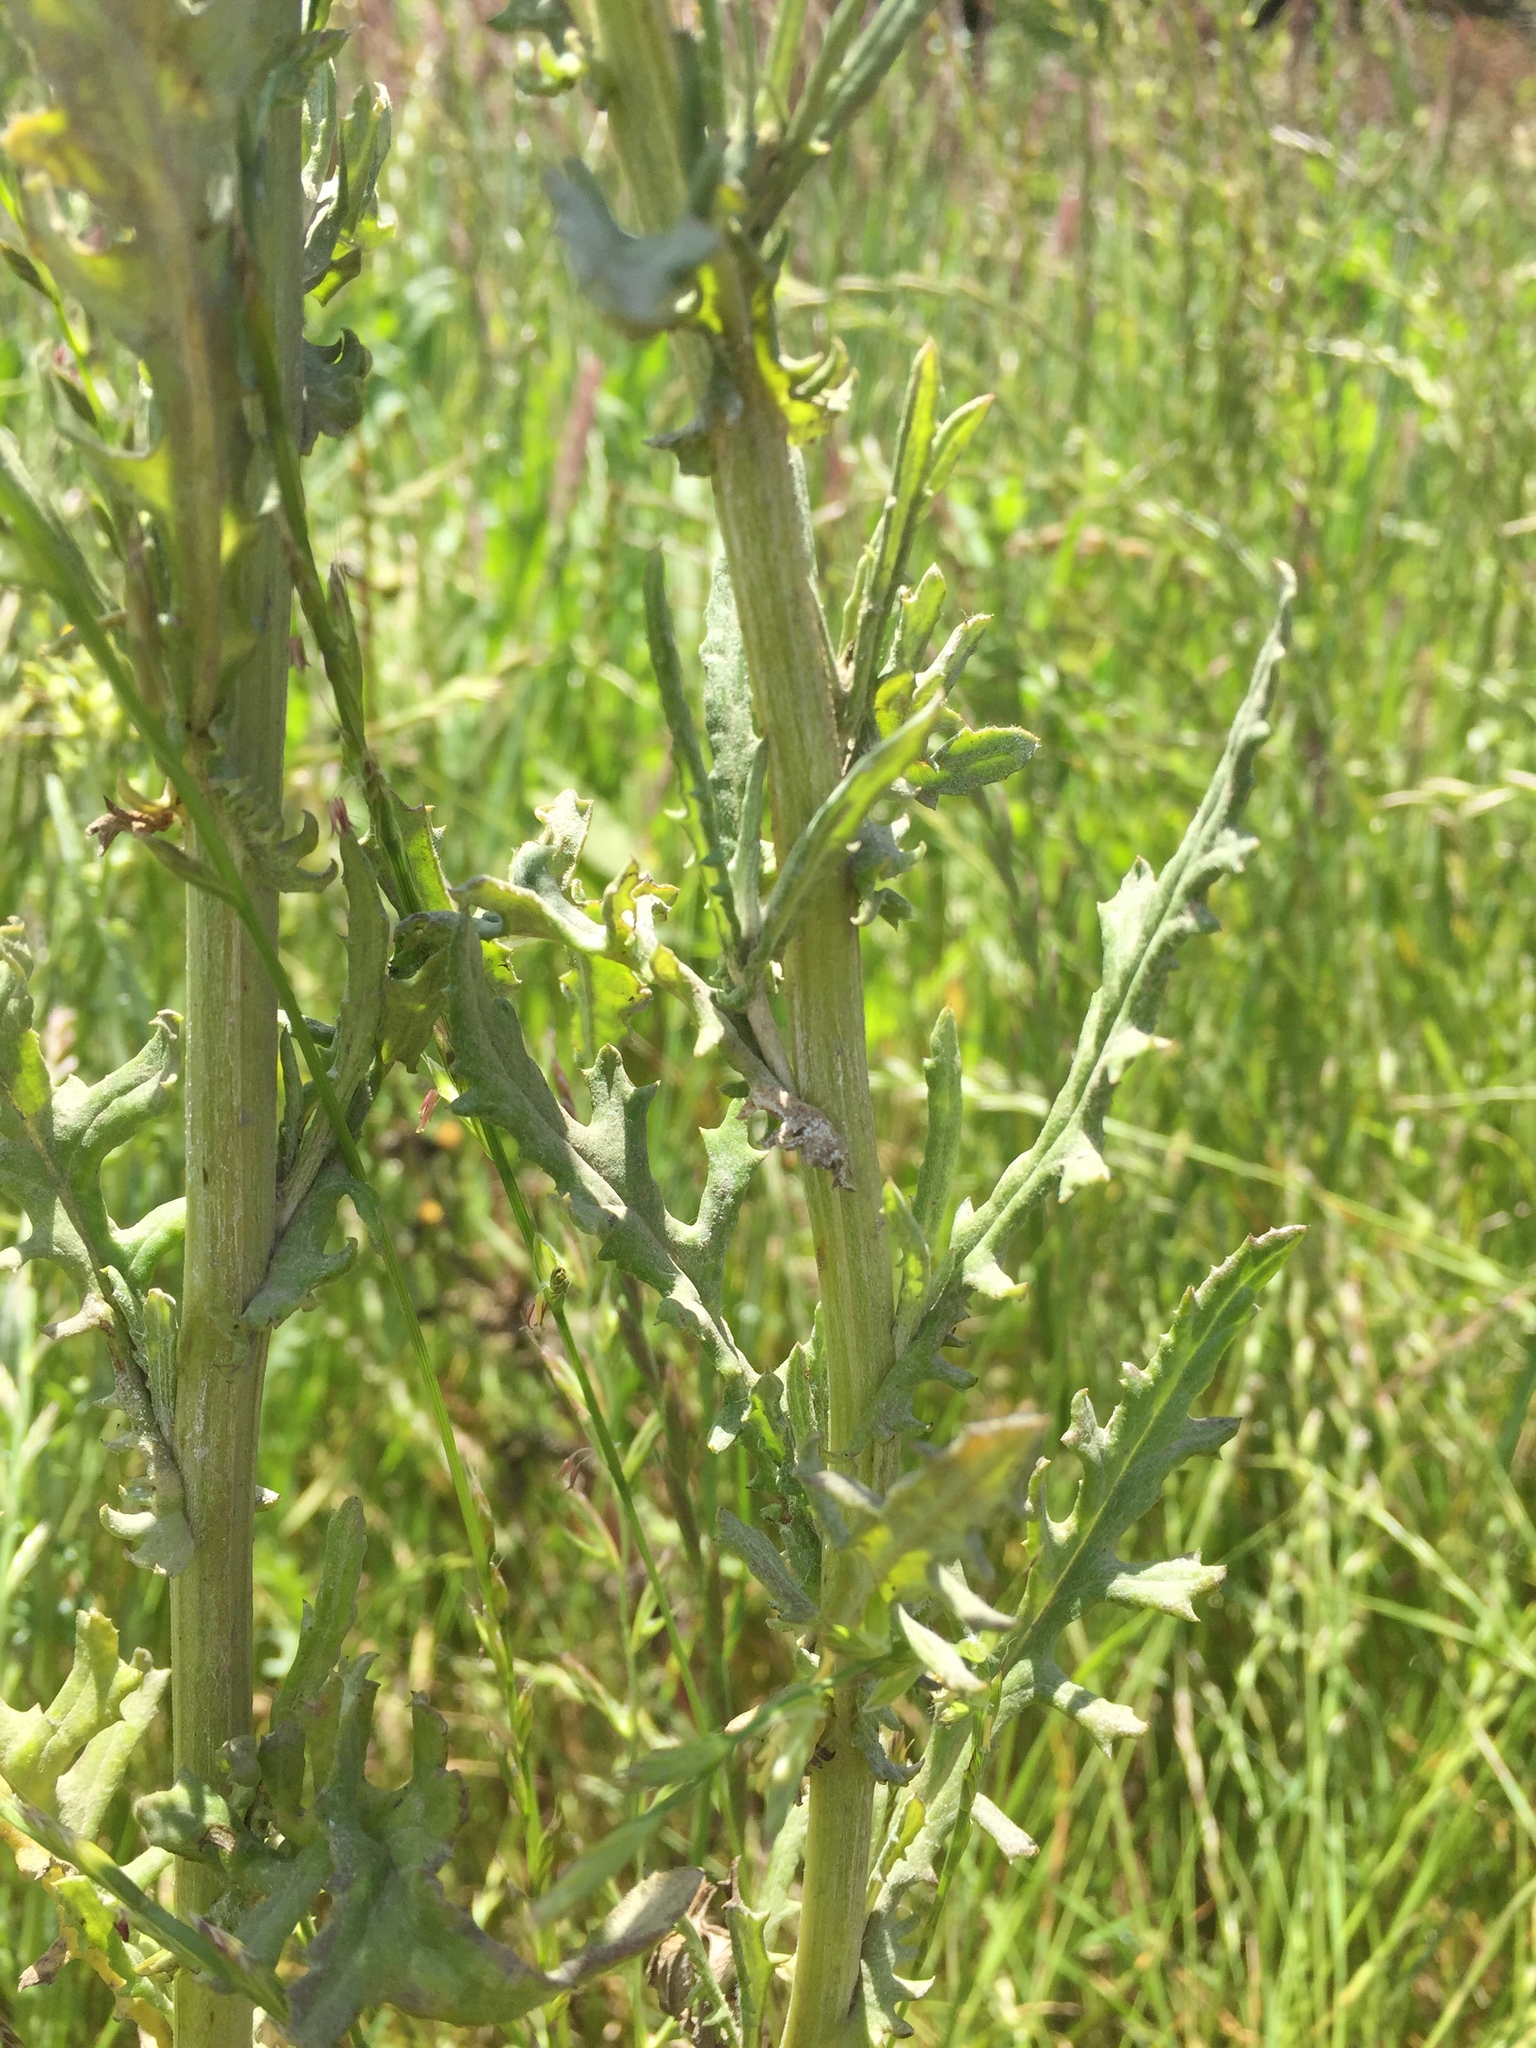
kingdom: Plantae
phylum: Tracheophyta
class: Magnoliopsida
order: Asterales
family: Asteraceae
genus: Senecio
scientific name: Senecio glomeratus
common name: Cutleaf burnweed
